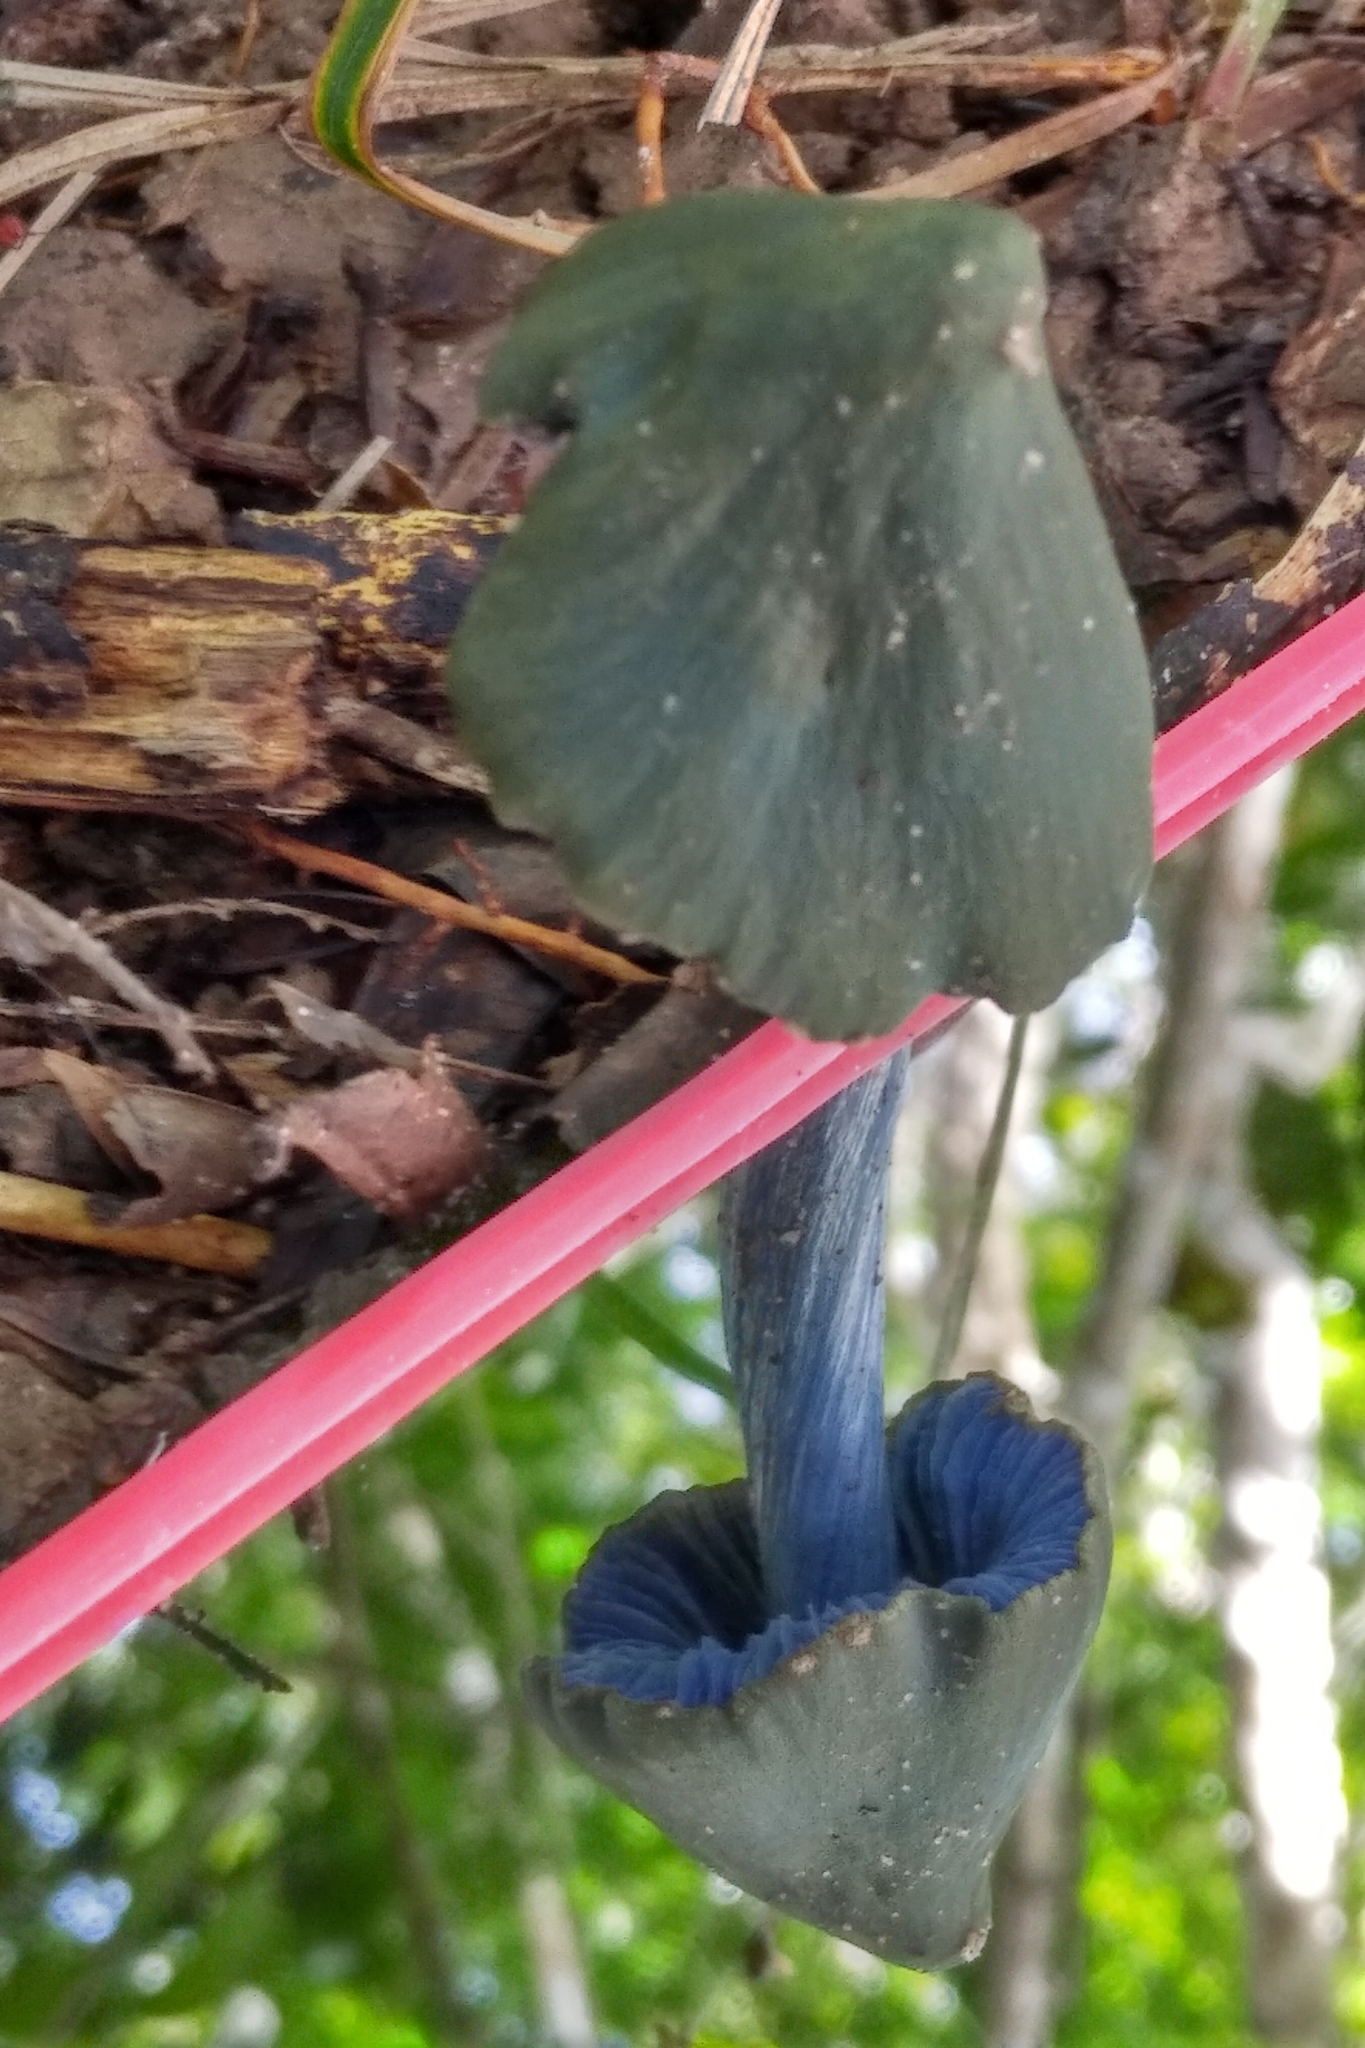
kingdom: Fungi
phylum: Basidiomycota
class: Agaricomycetes
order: Agaricales
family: Entolomataceae
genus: Entoloma
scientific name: Entoloma azureoviride
